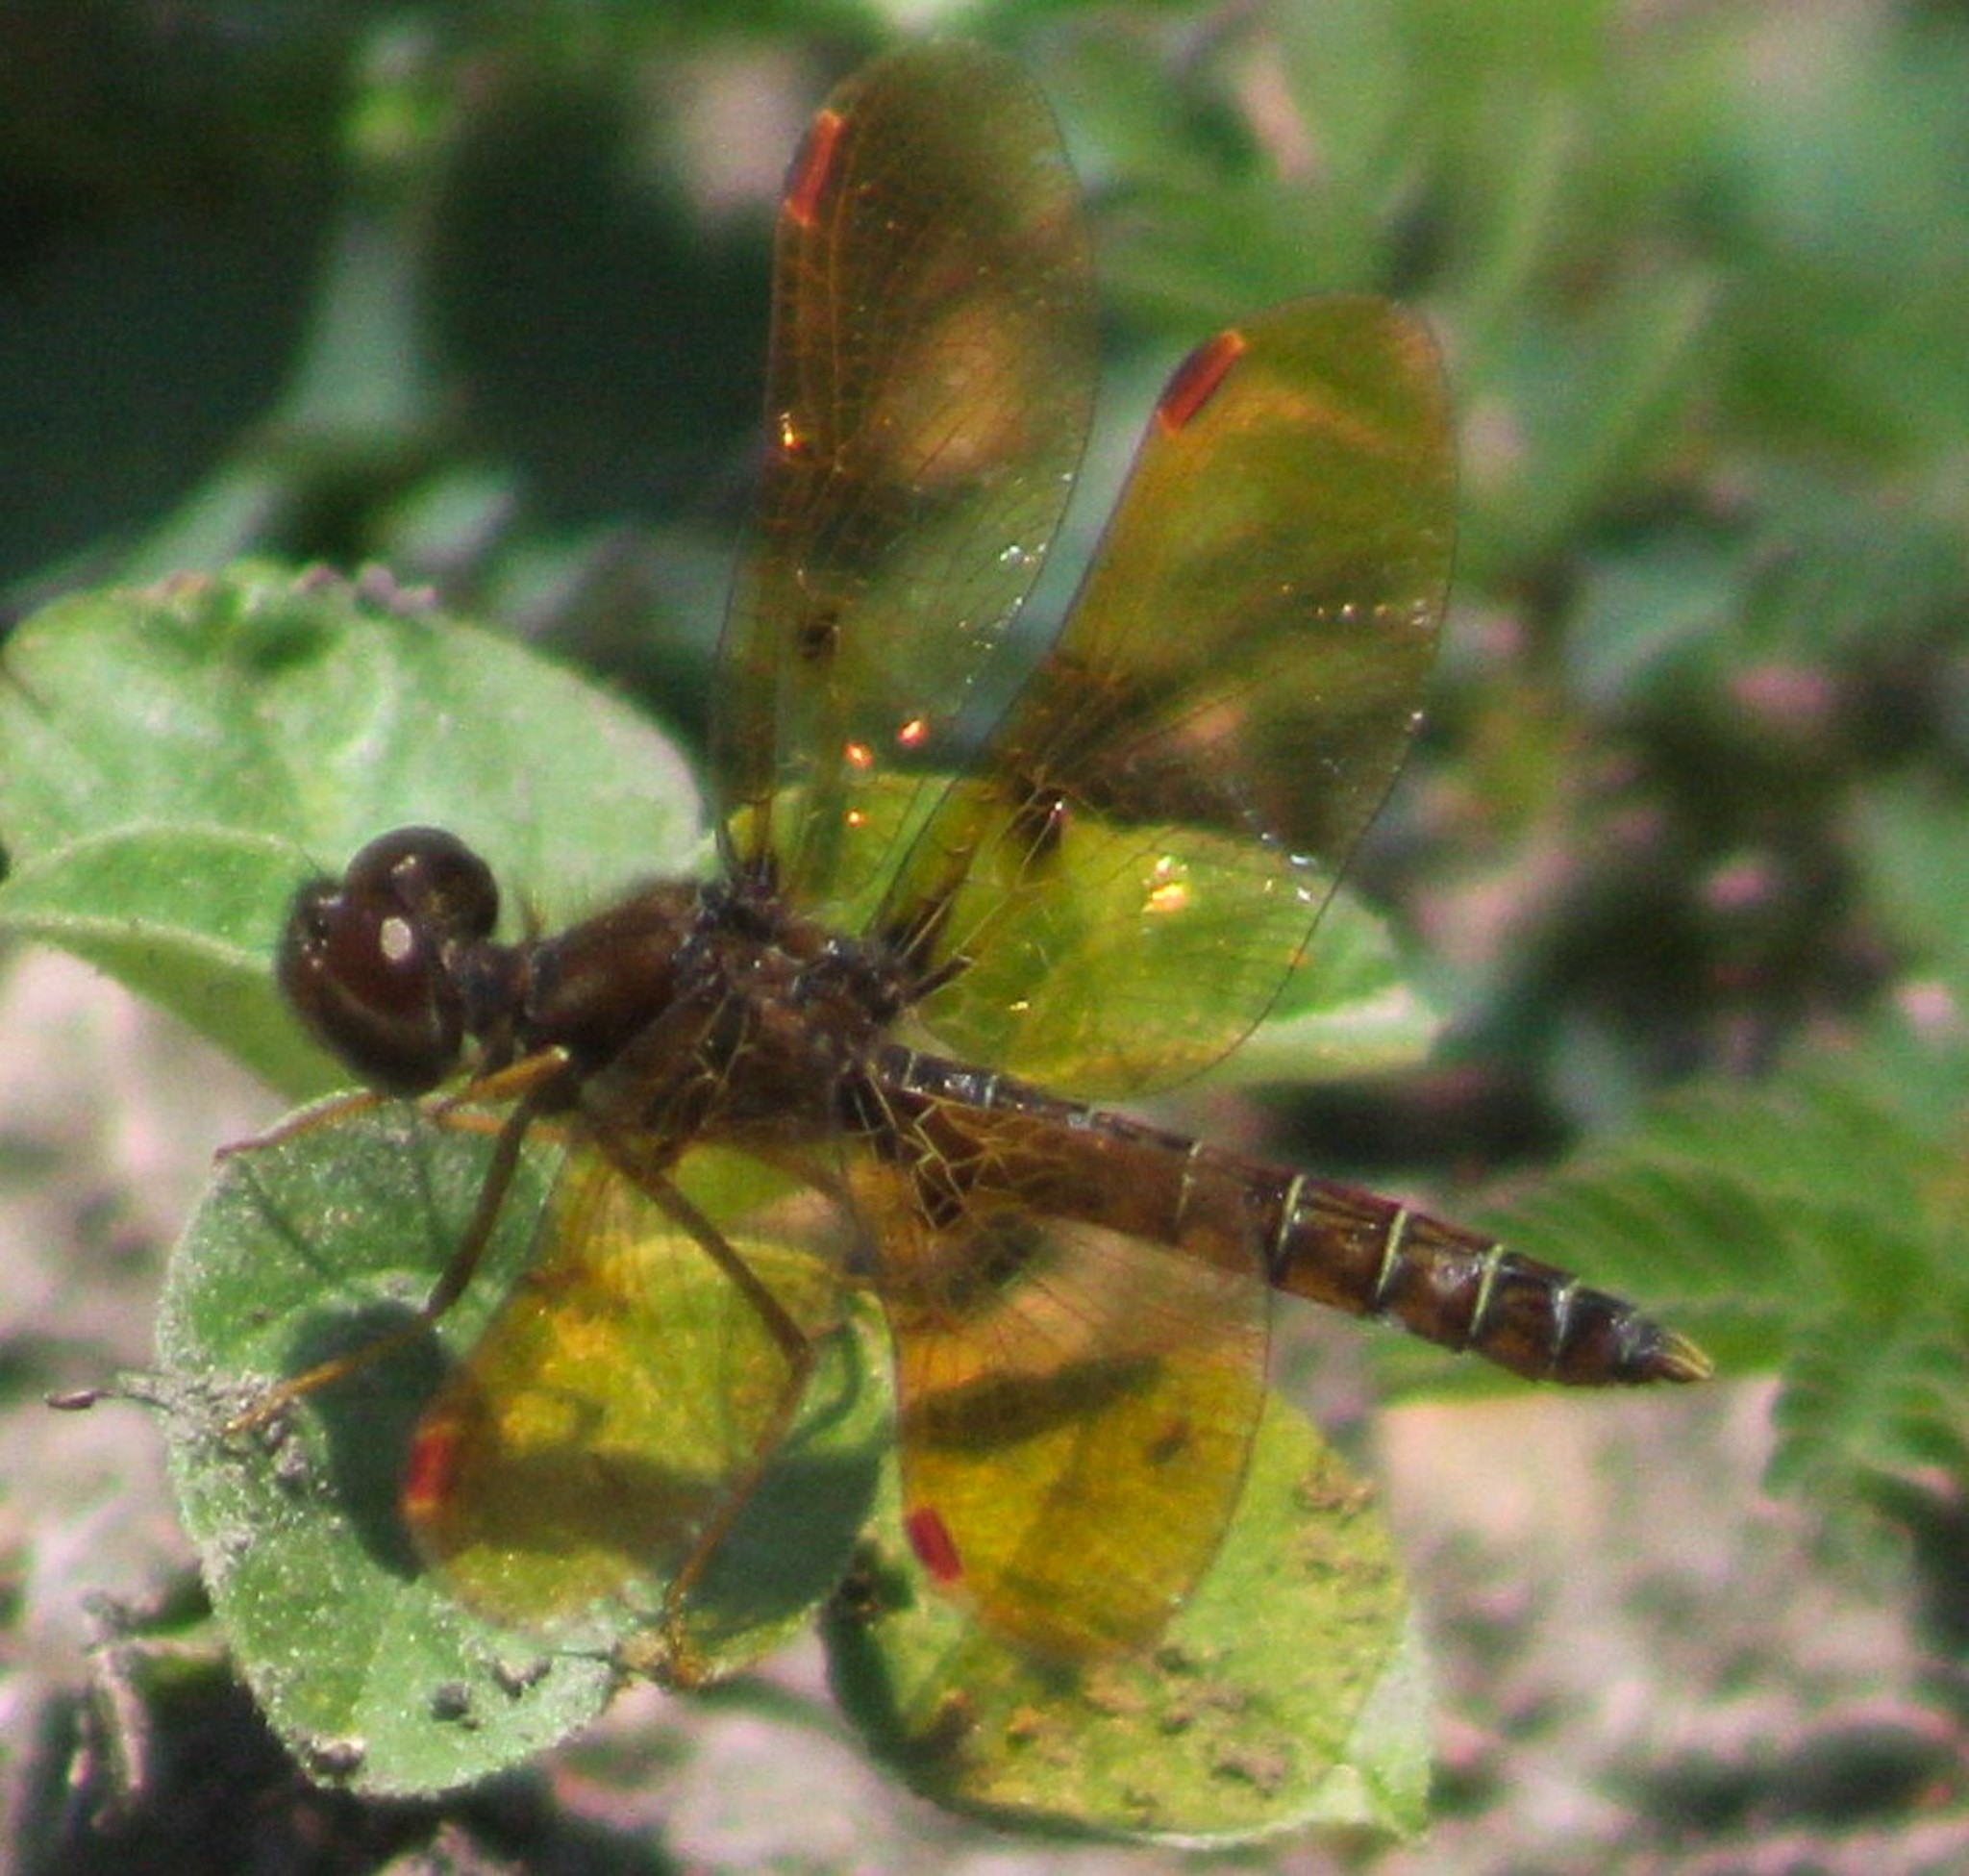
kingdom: Animalia
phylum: Arthropoda
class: Insecta
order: Odonata
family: Libellulidae
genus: Perithemis
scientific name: Perithemis tenera
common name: Eastern amberwing
